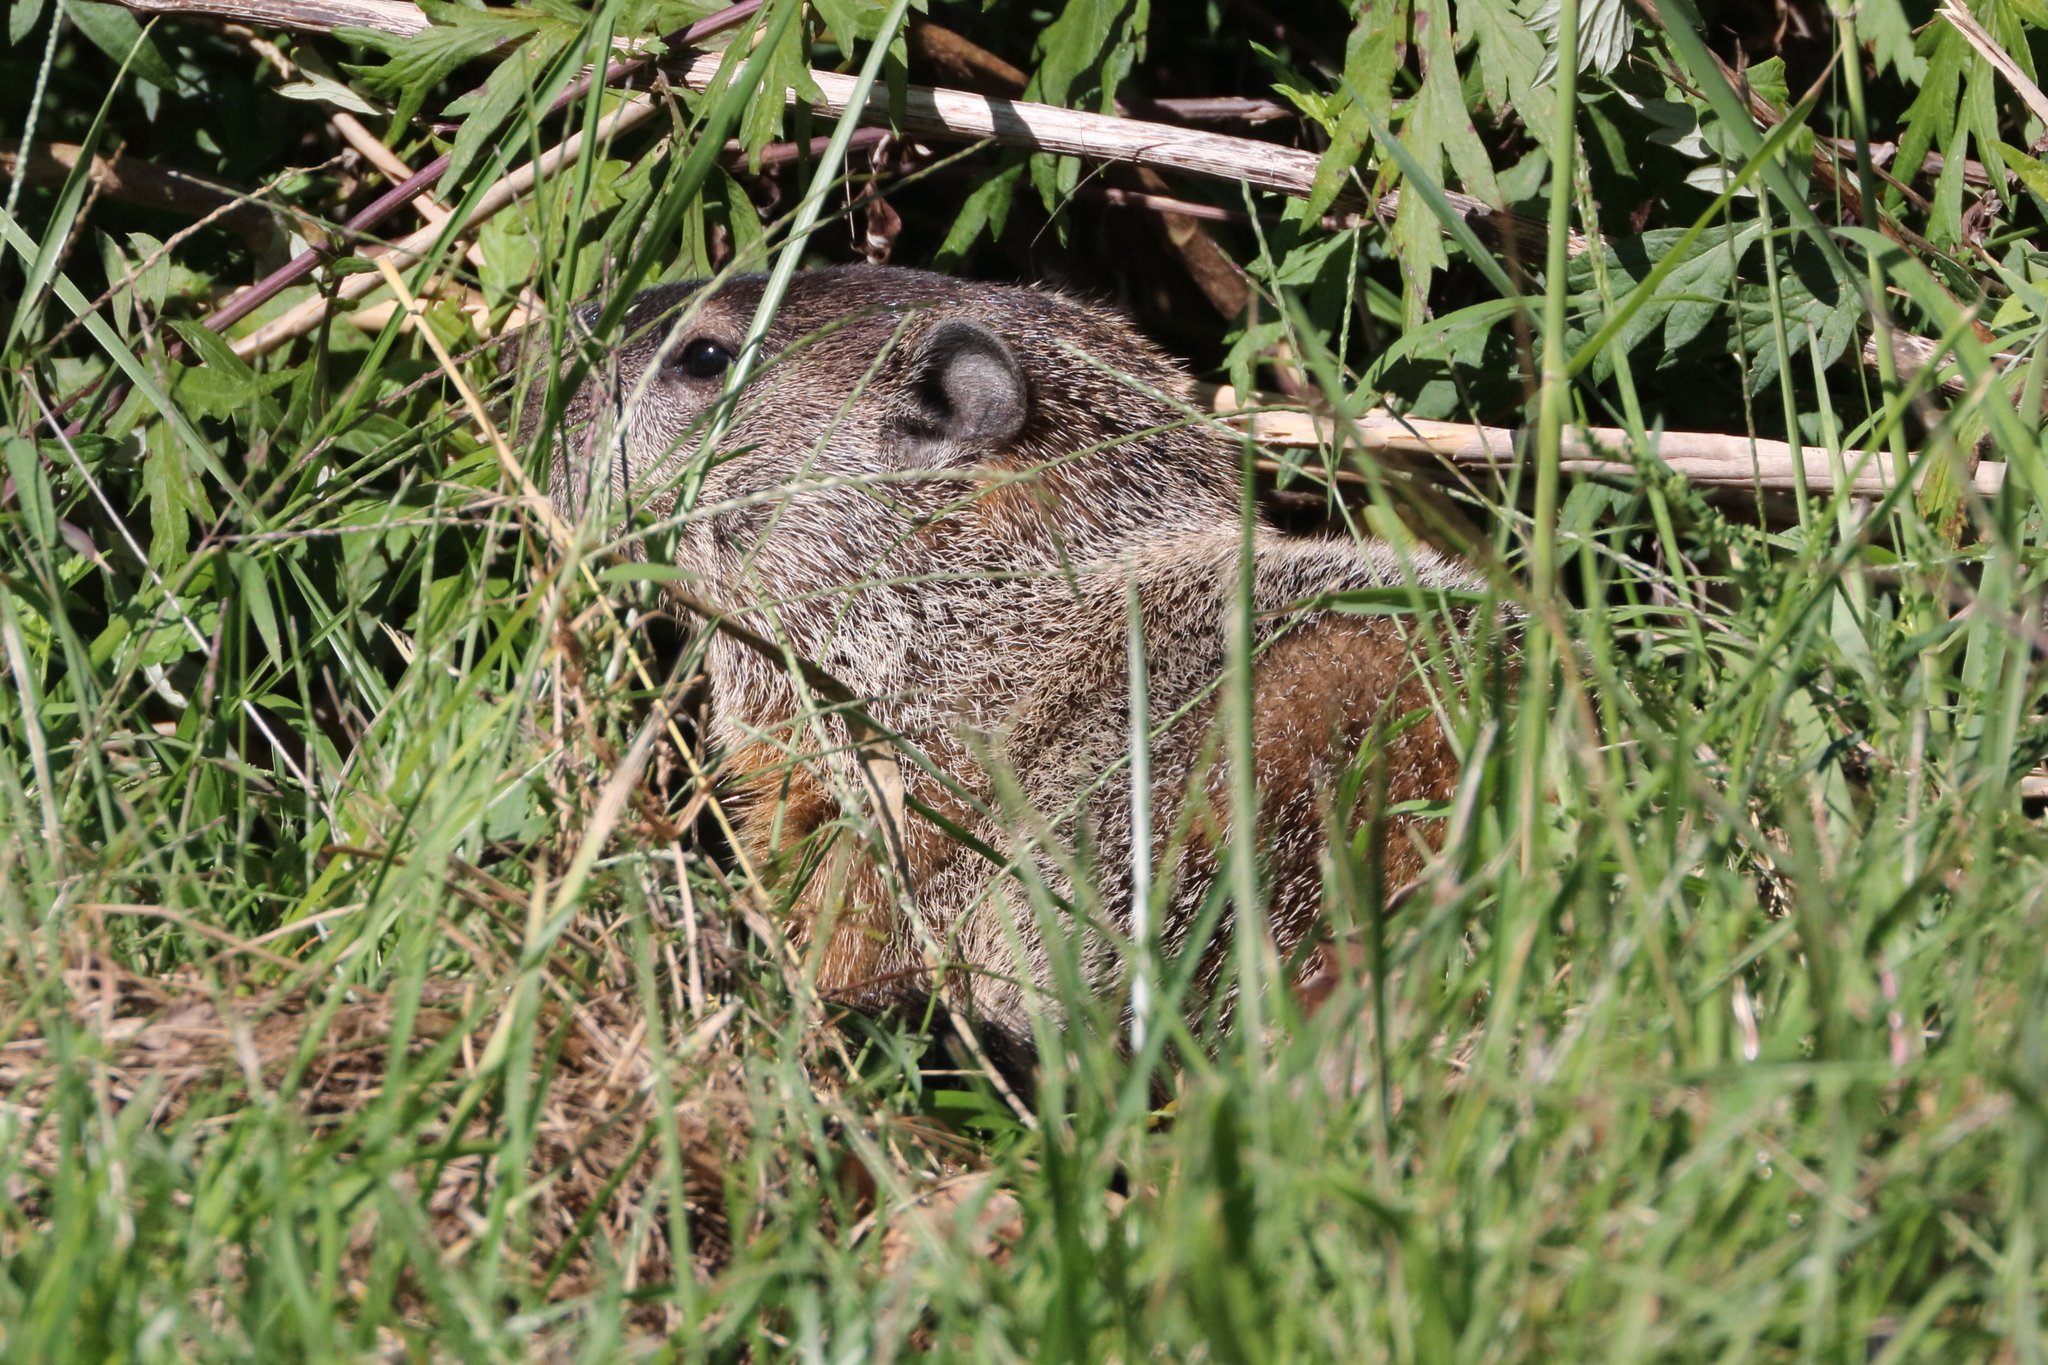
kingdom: Animalia
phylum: Chordata
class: Mammalia
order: Rodentia
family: Sciuridae
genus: Marmota
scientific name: Marmota monax
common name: Groundhog
